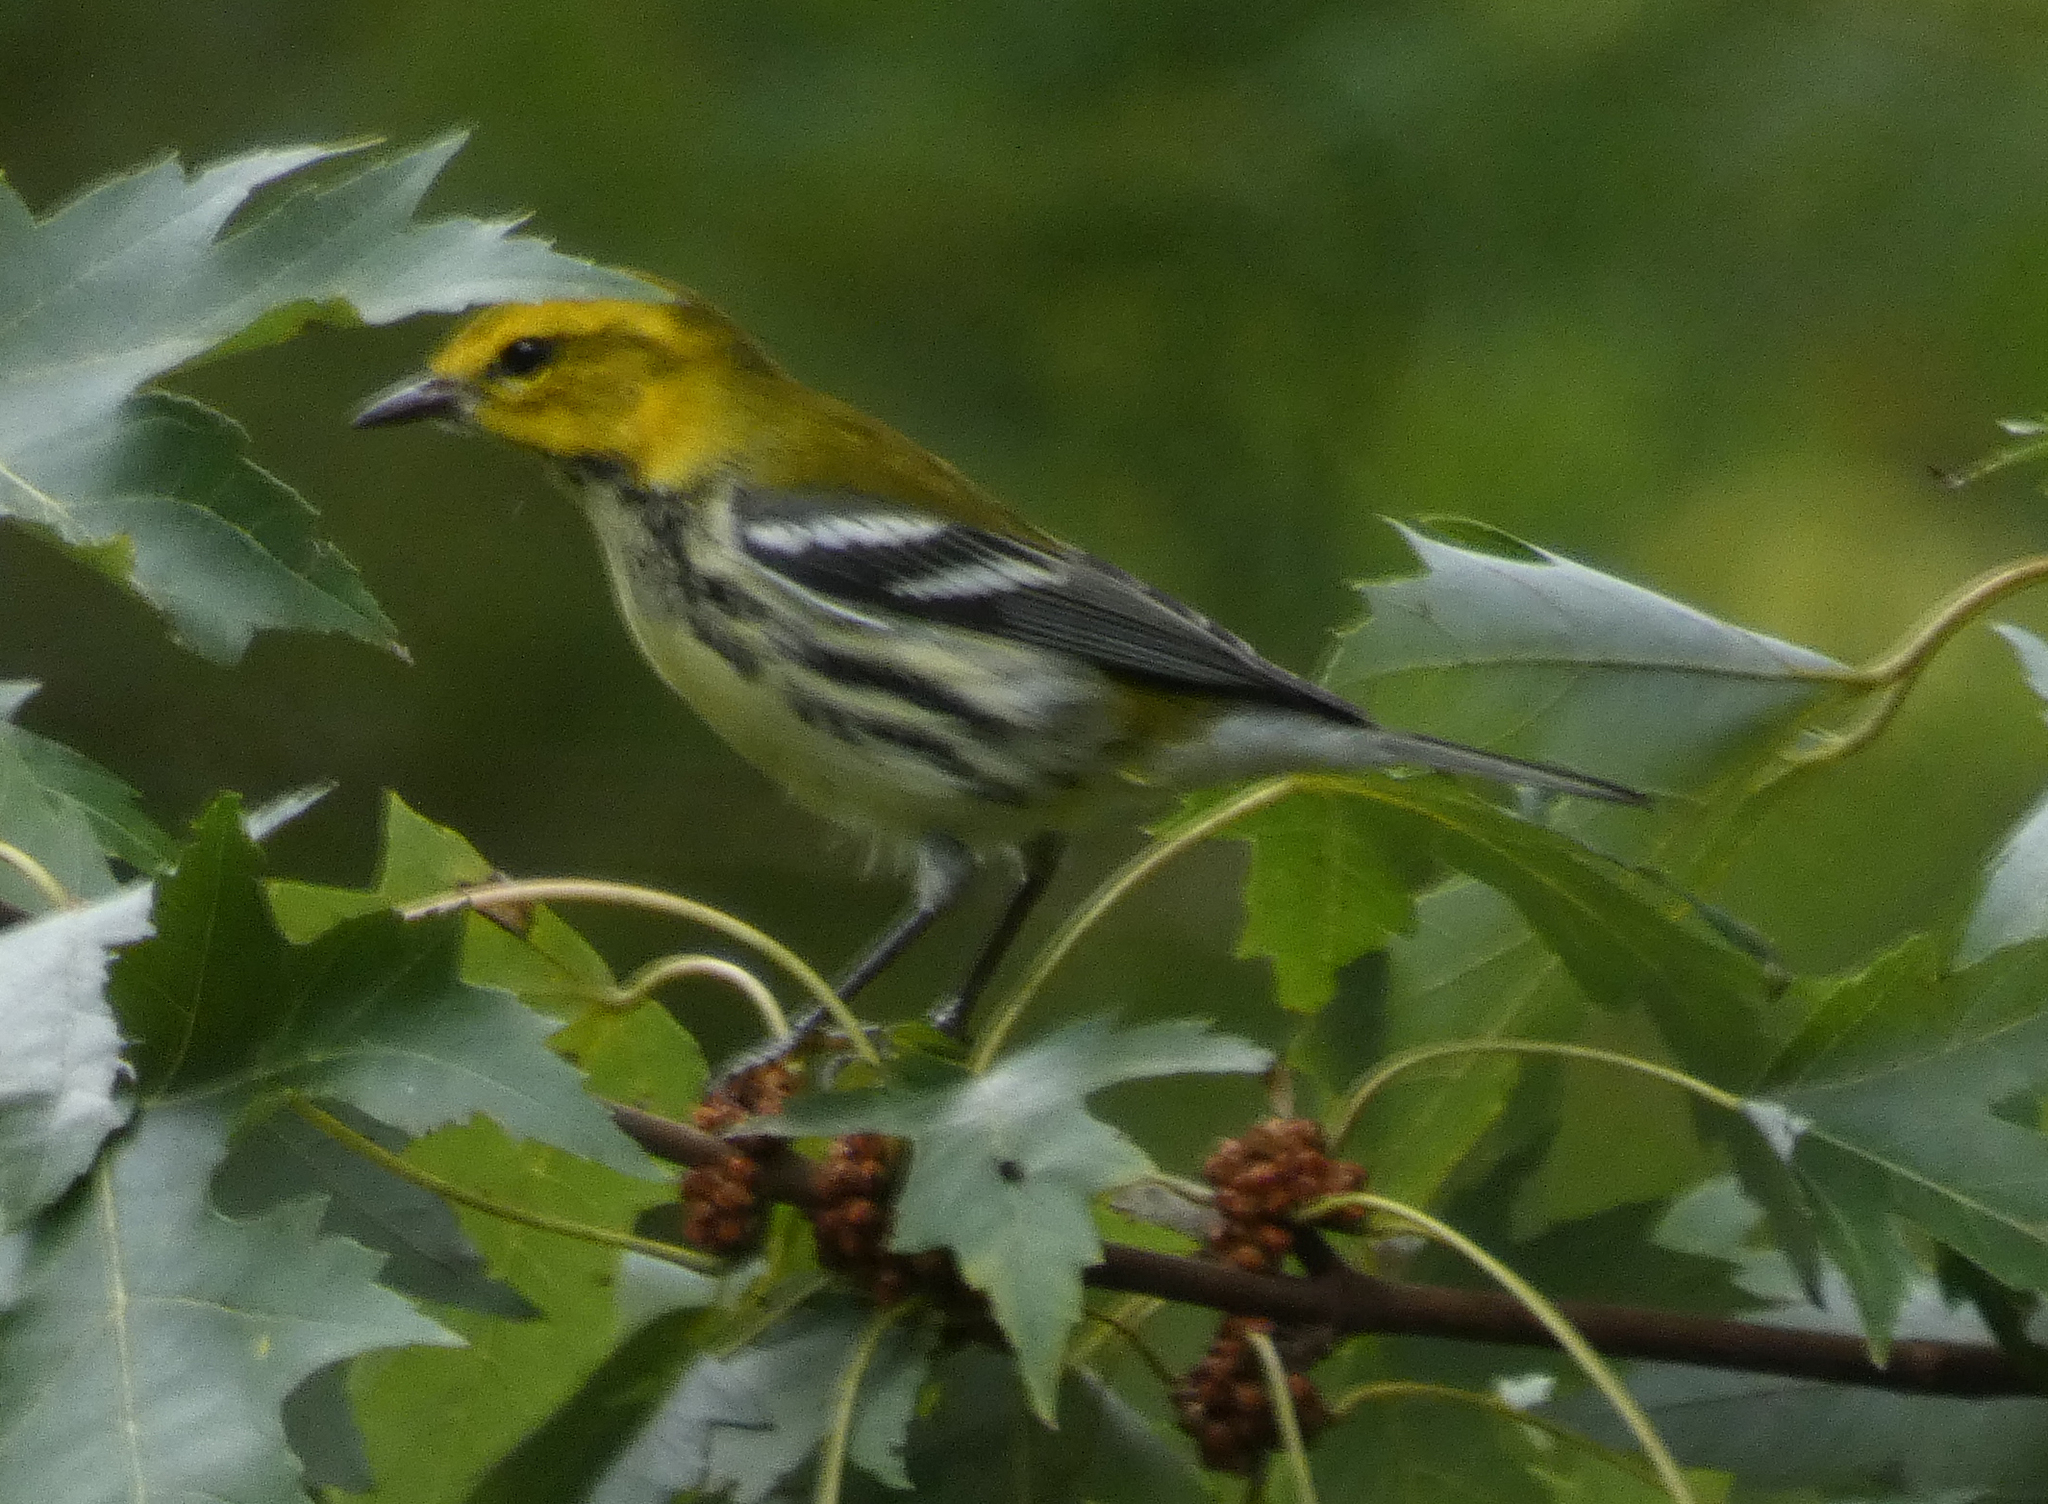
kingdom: Animalia
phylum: Chordata
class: Aves
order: Passeriformes
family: Parulidae
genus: Setophaga
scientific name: Setophaga virens
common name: Black-throated green warbler
